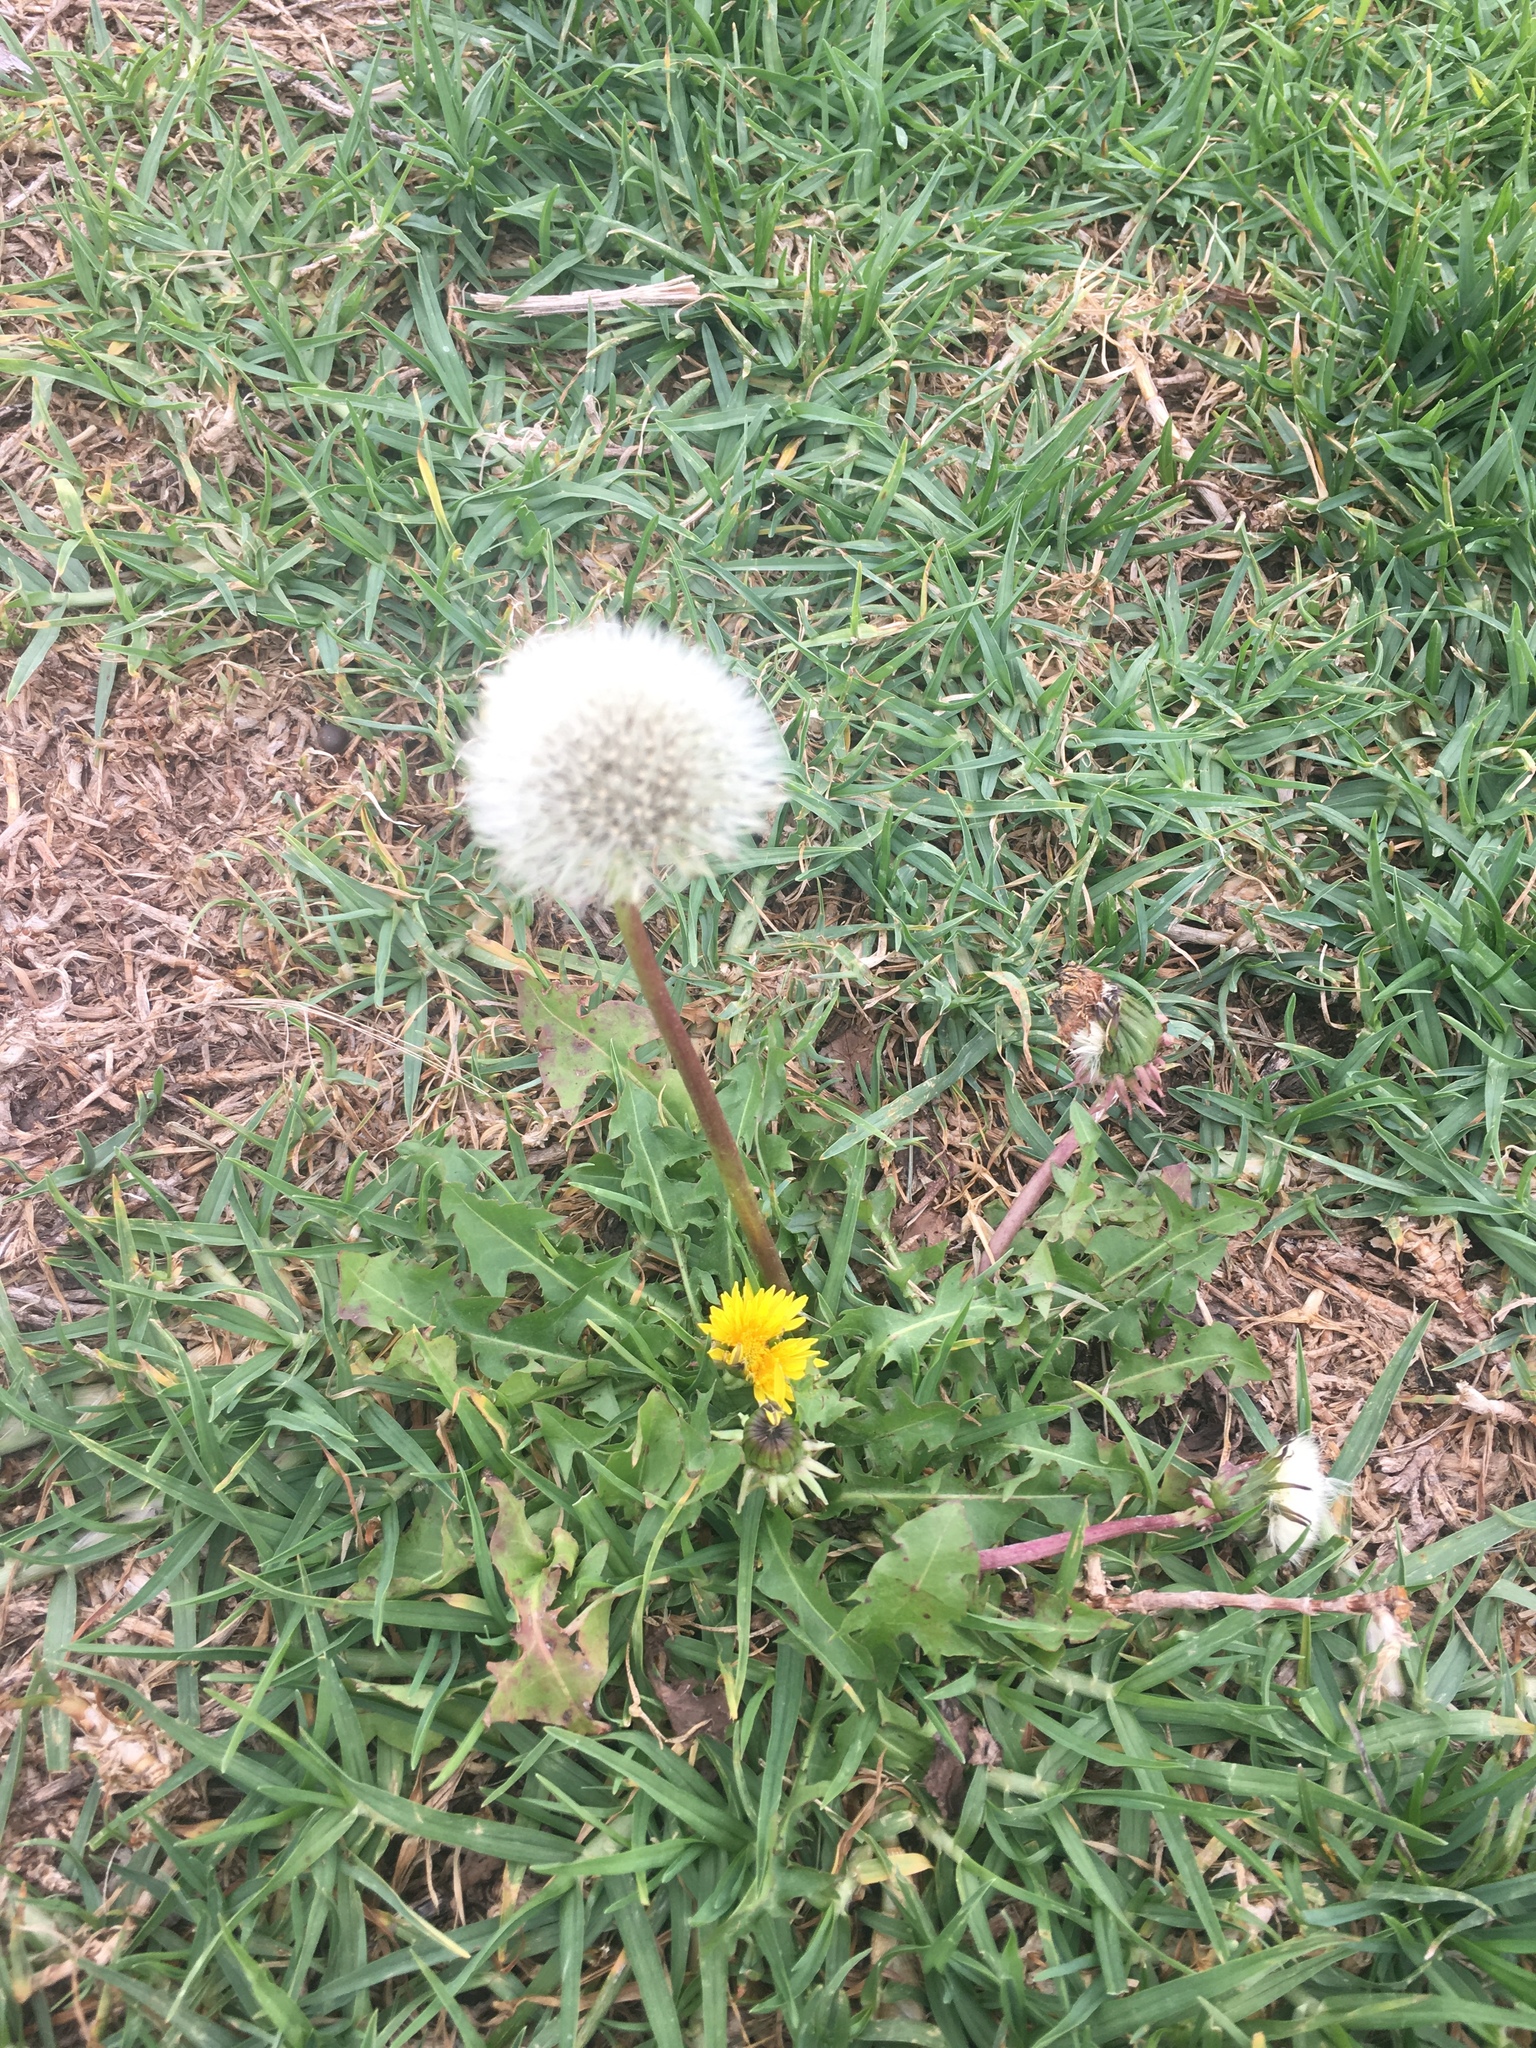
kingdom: Plantae
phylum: Tracheophyta
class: Magnoliopsida
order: Asterales
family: Asteraceae
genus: Taraxacum
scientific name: Taraxacum officinale
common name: Common dandelion
